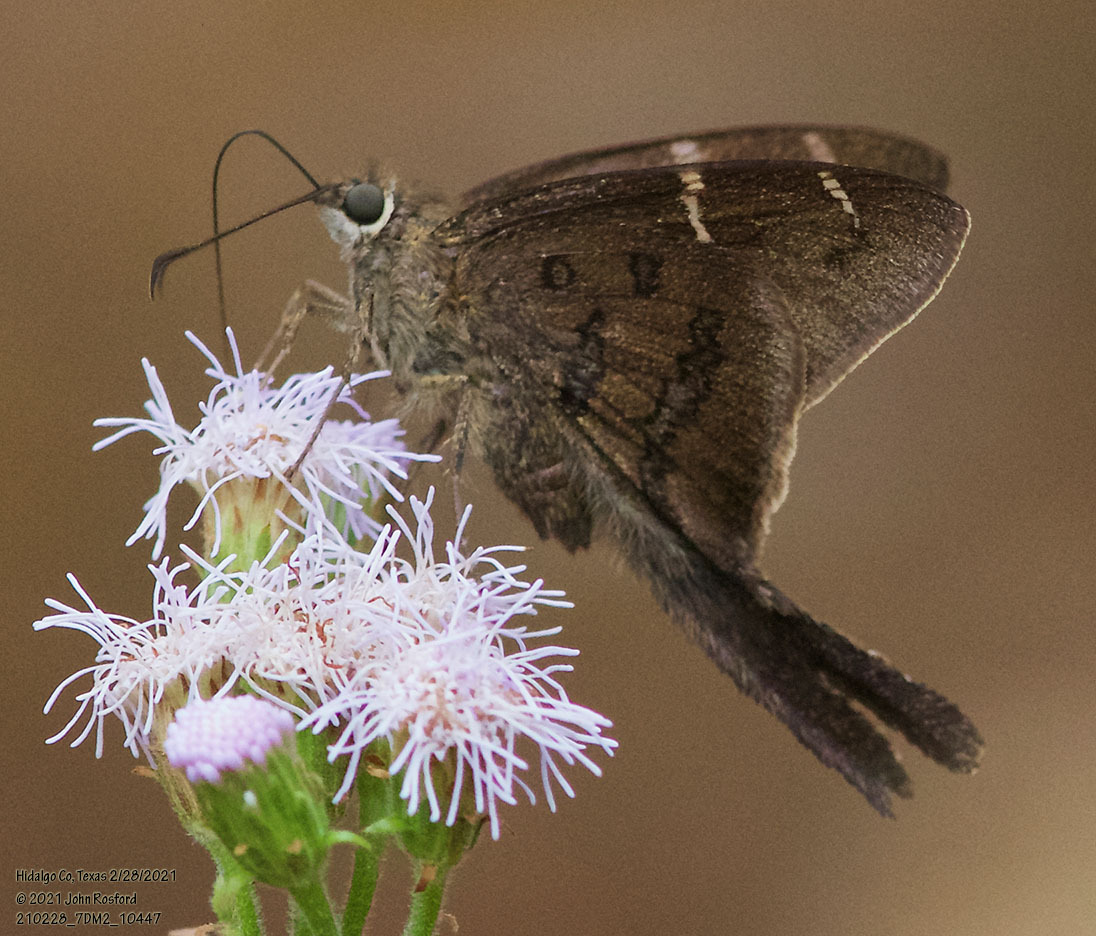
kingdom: Animalia
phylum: Arthropoda
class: Insecta
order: Lepidoptera
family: Hesperiidae
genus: Urbanus
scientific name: Urbanus procne
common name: Brown longtail
